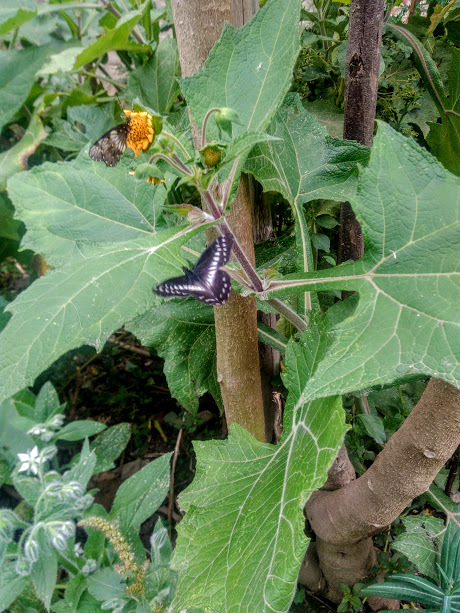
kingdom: Animalia
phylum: Arthropoda
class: Insecta
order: Lepidoptera
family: Pieridae
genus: Catasticta
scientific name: Catasticta affinis
